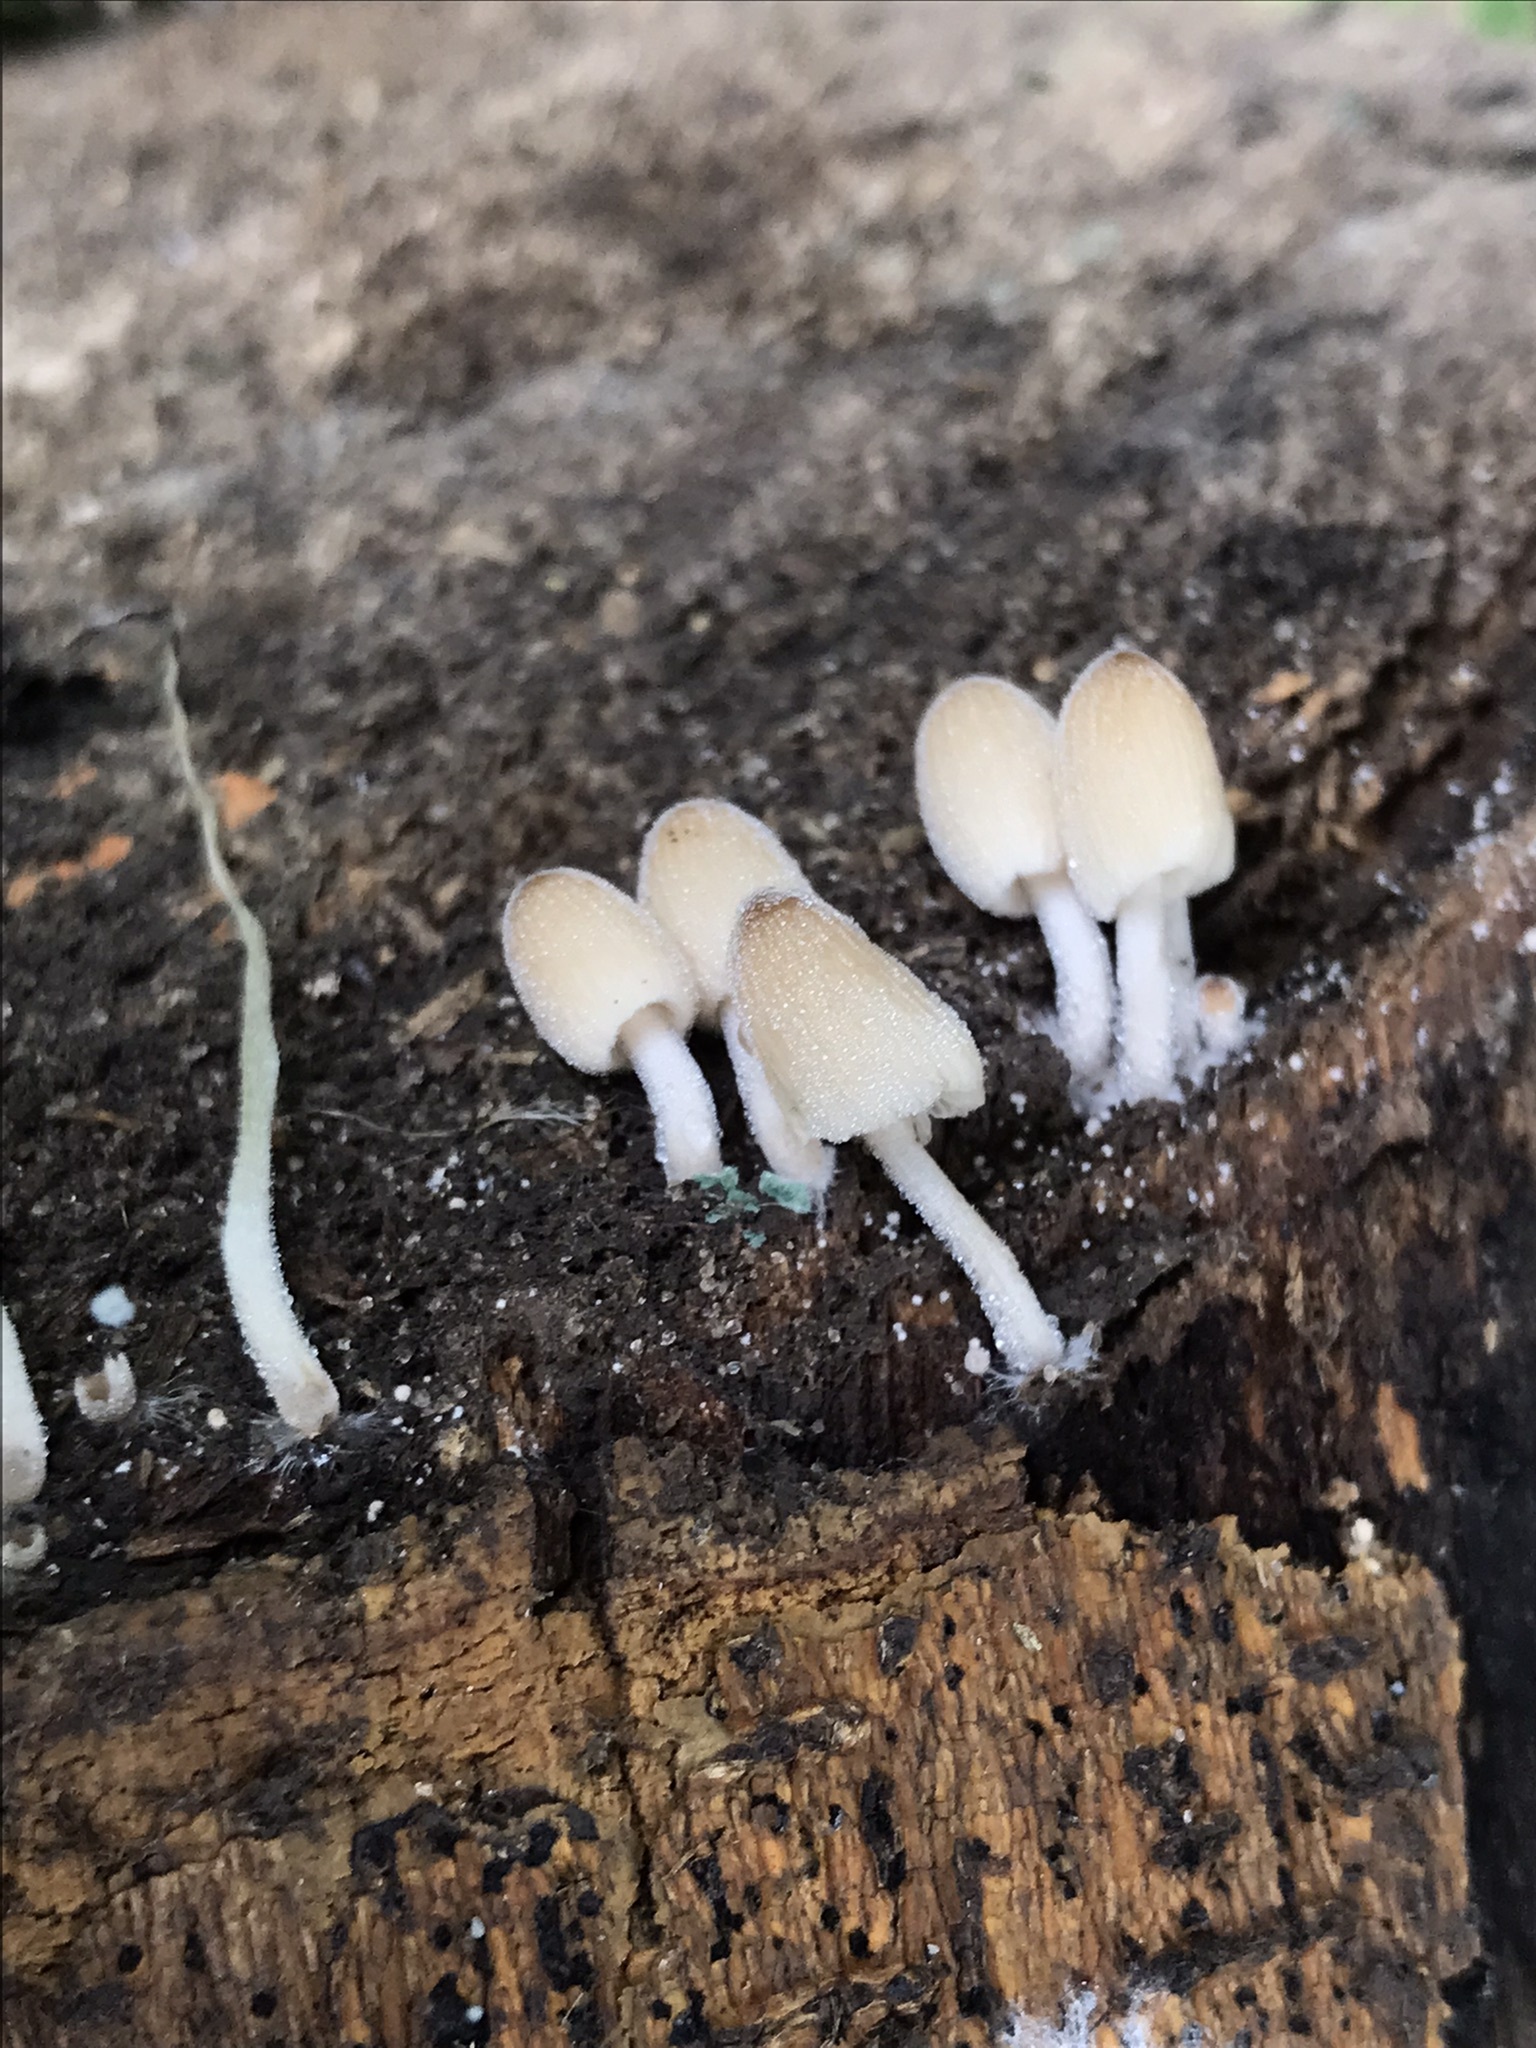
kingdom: Fungi
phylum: Basidiomycota
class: Agaricomycetes
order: Agaricales
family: Psathyrellaceae
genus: Coprinellus
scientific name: Coprinellus micaceus
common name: Glistening ink-cap
